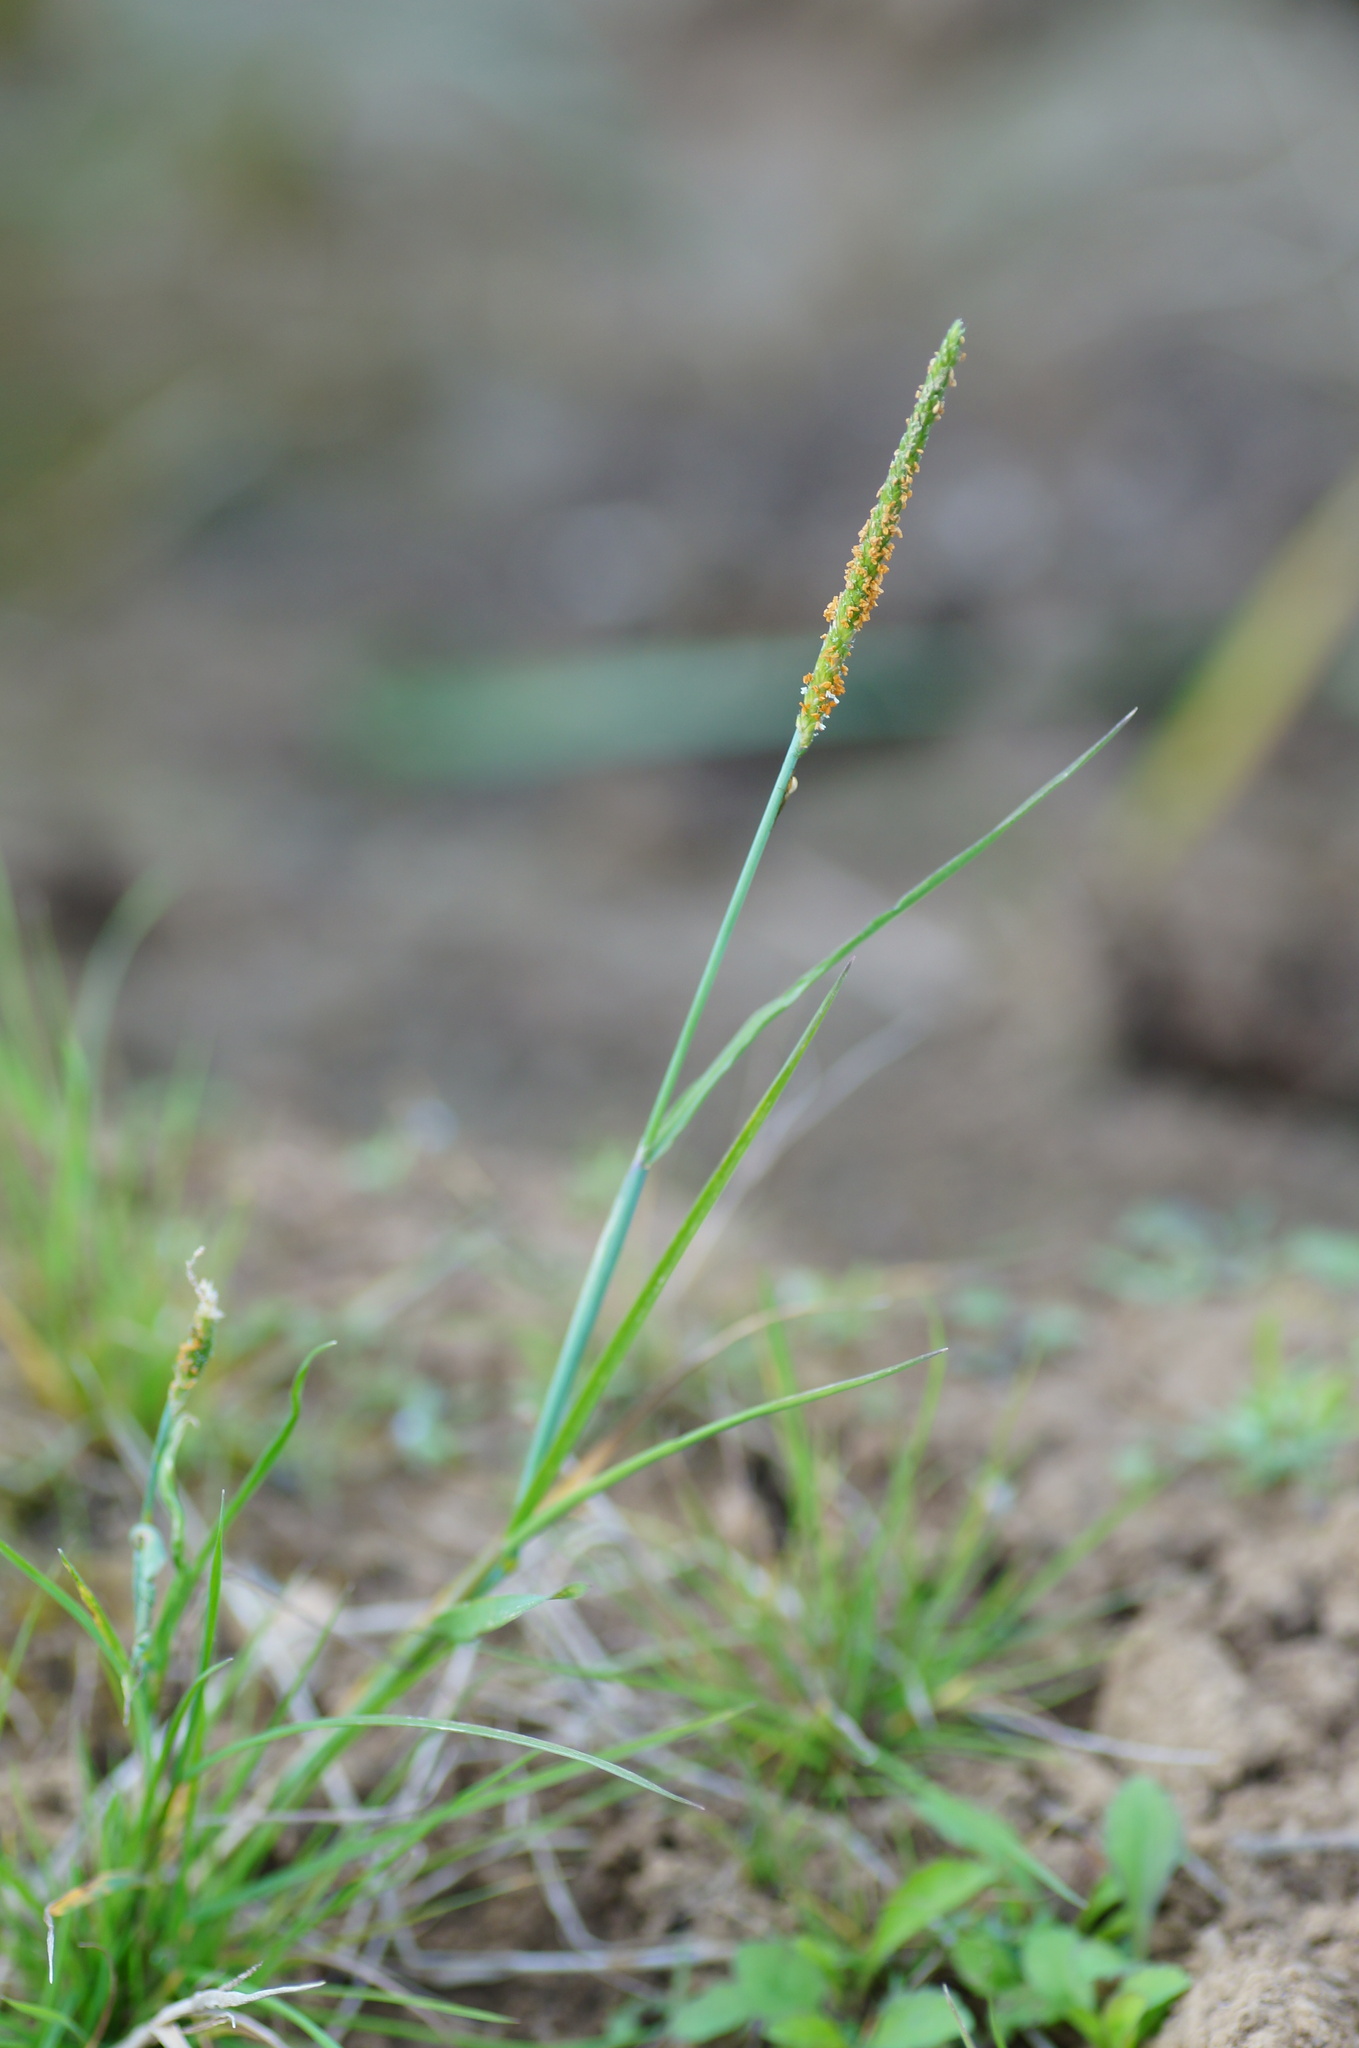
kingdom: Plantae
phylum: Tracheophyta
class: Liliopsida
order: Poales
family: Poaceae
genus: Alopecurus
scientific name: Alopecurus aequalis
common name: Orange foxtail
